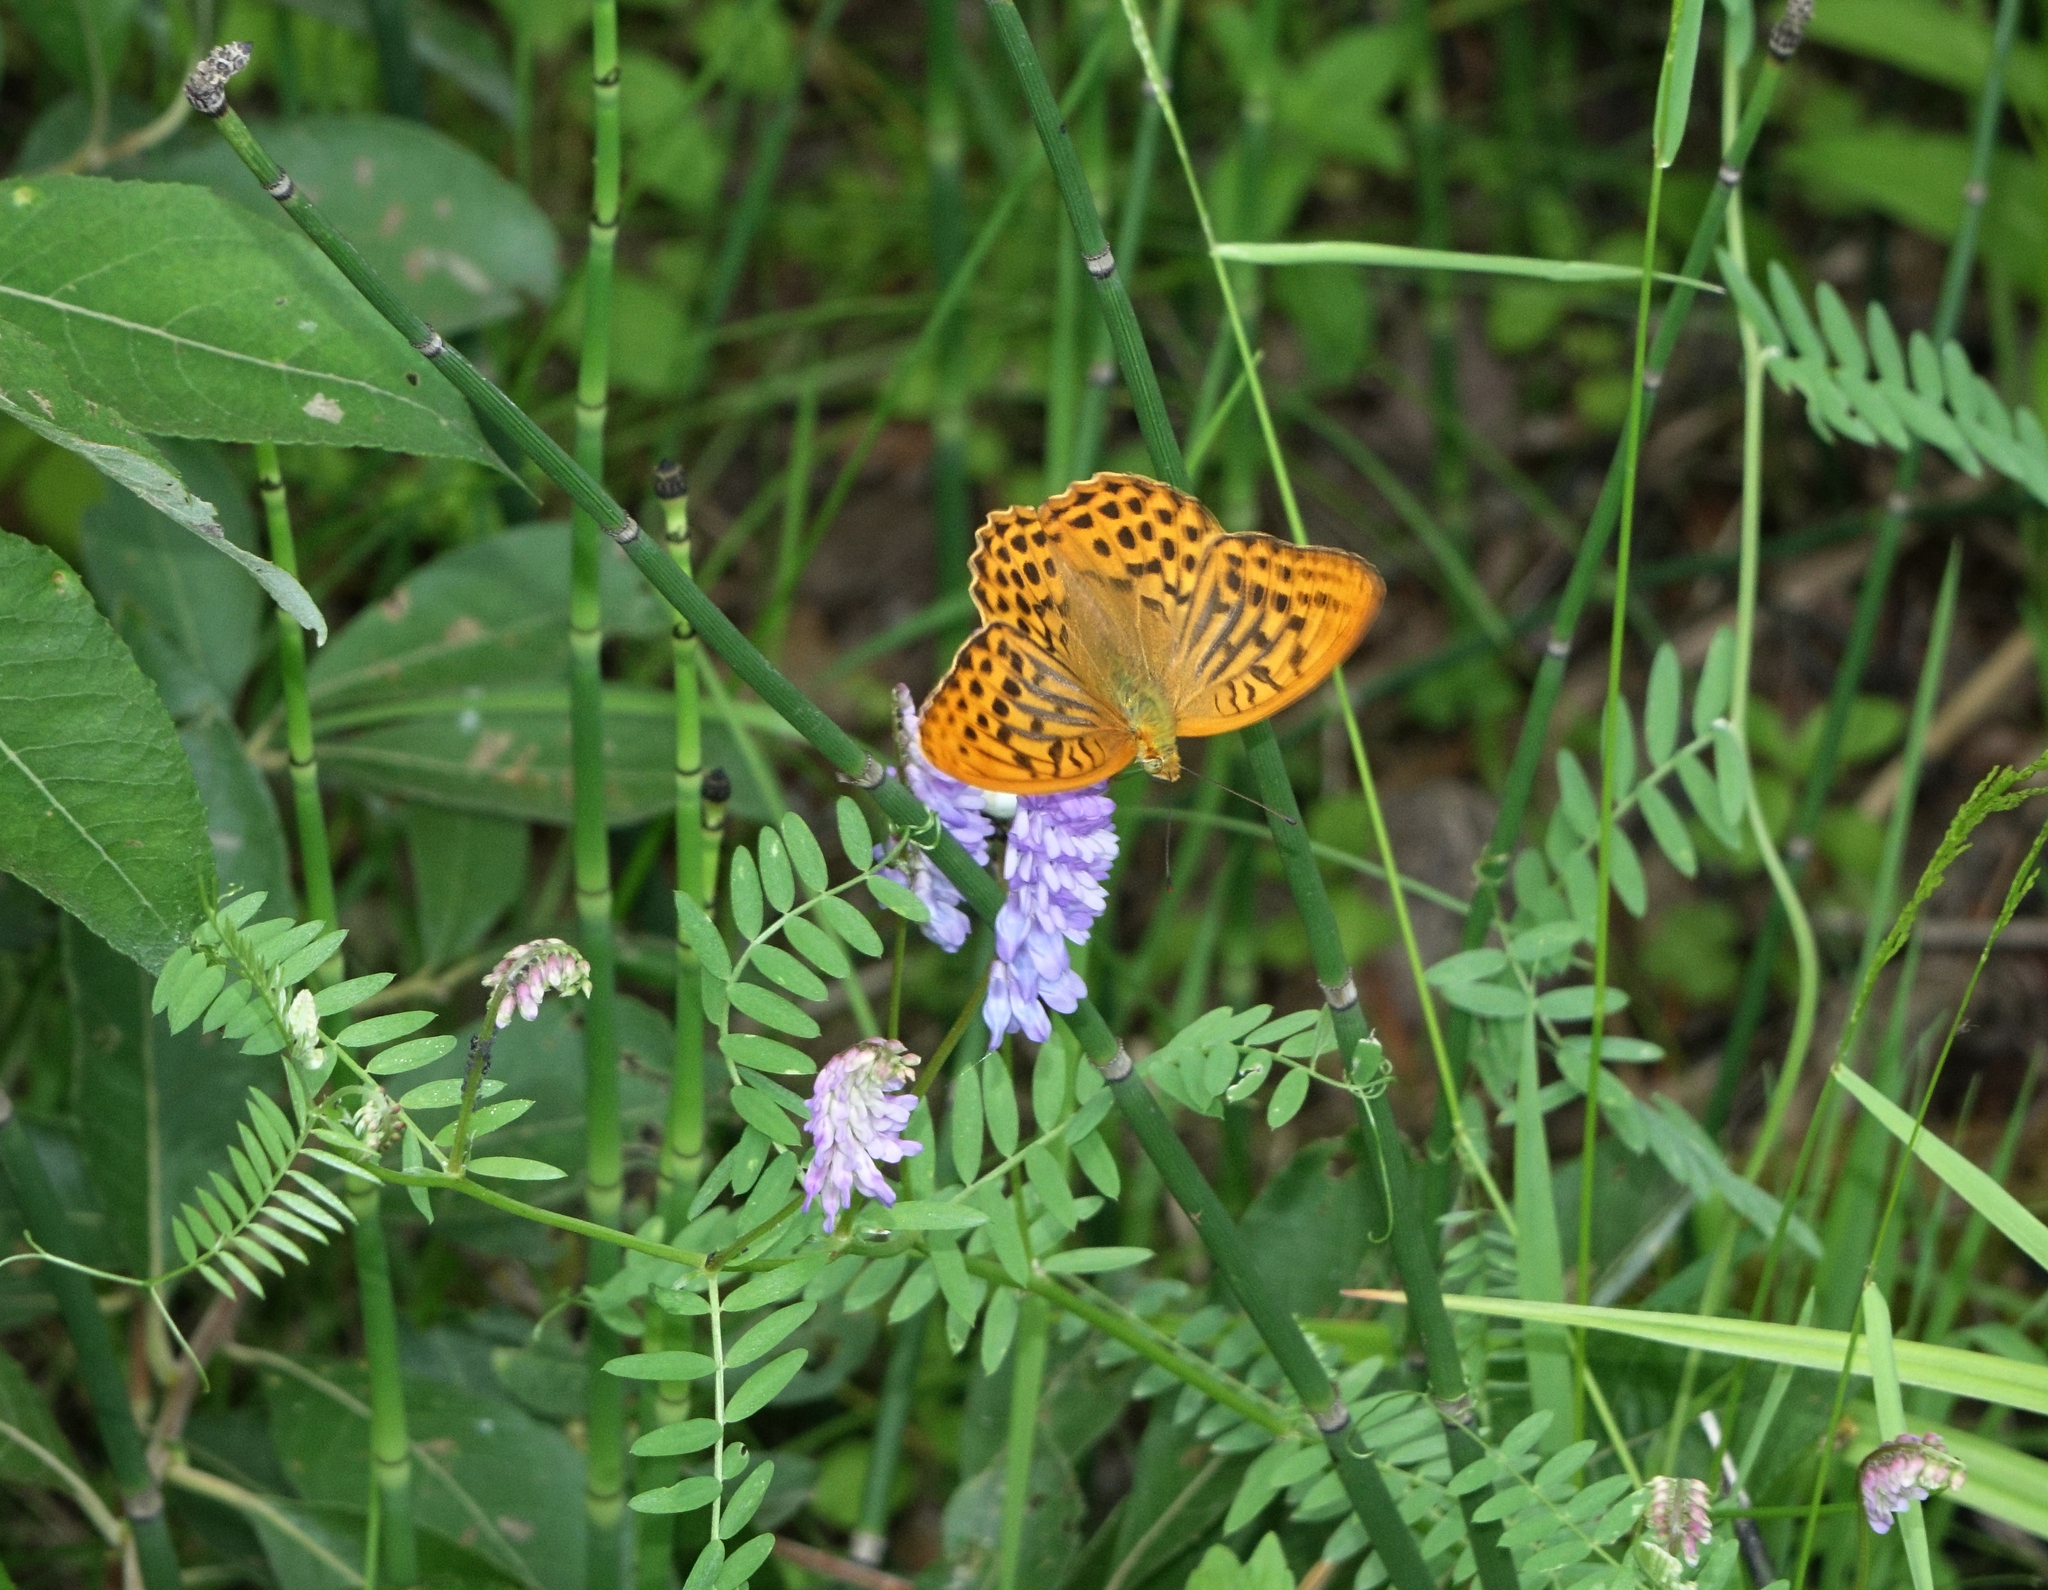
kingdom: Animalia
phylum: Arthropoda
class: Insecta
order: Lepidoptera
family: Nymphalidae
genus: Argynnis
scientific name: Argynnis paphia
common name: Silver-washed fritillary
